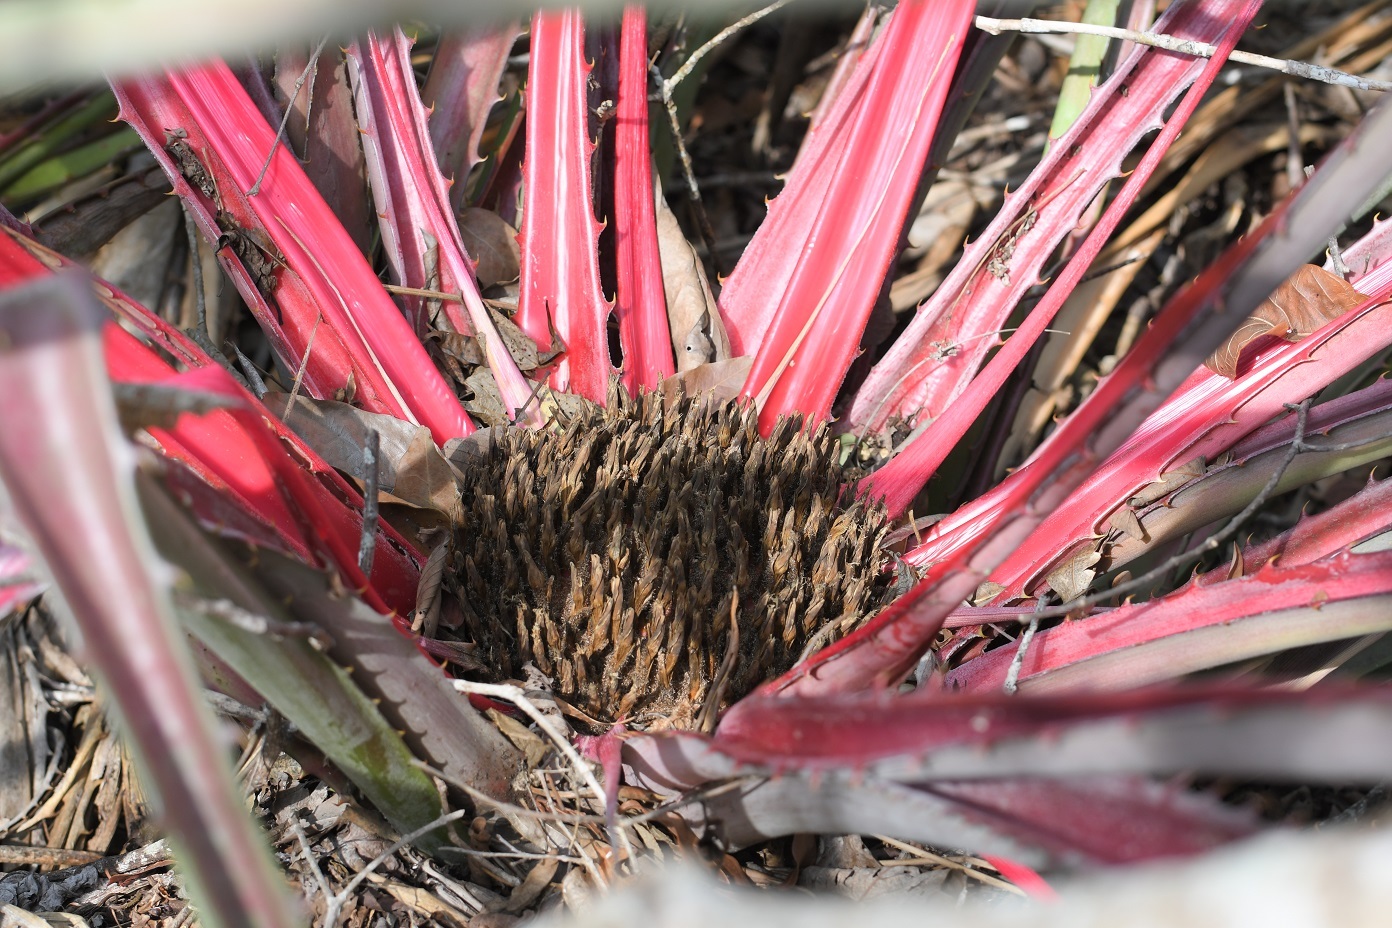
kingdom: Plantae
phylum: Tracheophyta
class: Liliopsida
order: Poales
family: Bromeliaceae
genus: Bromelia
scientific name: Bromelia karatas
